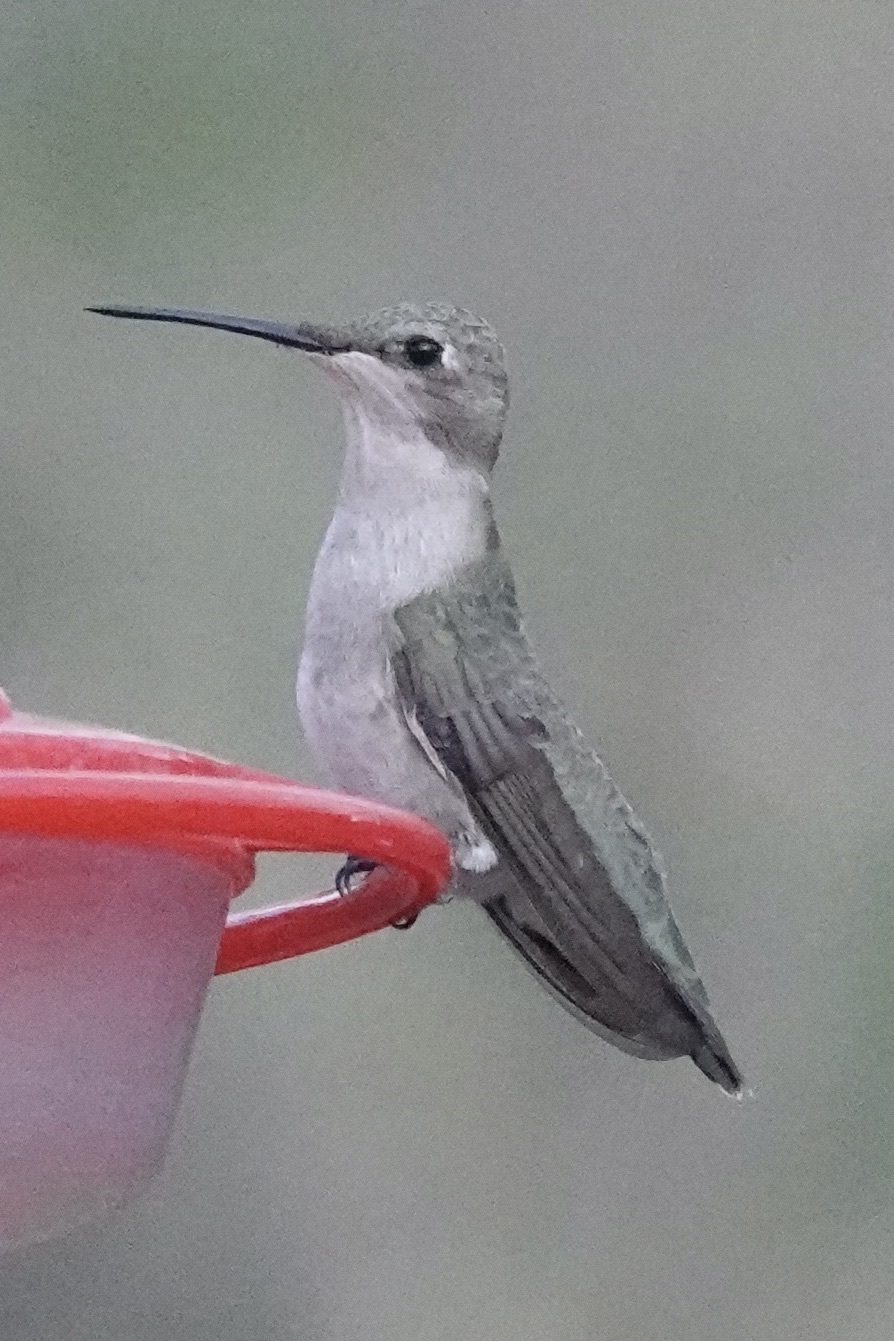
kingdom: Animalia
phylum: Chordata
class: Aves
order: Apodiformes
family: Trochilidae
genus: Archilochus
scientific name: Archilochus alexandri
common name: Black-chinned hummingbird
